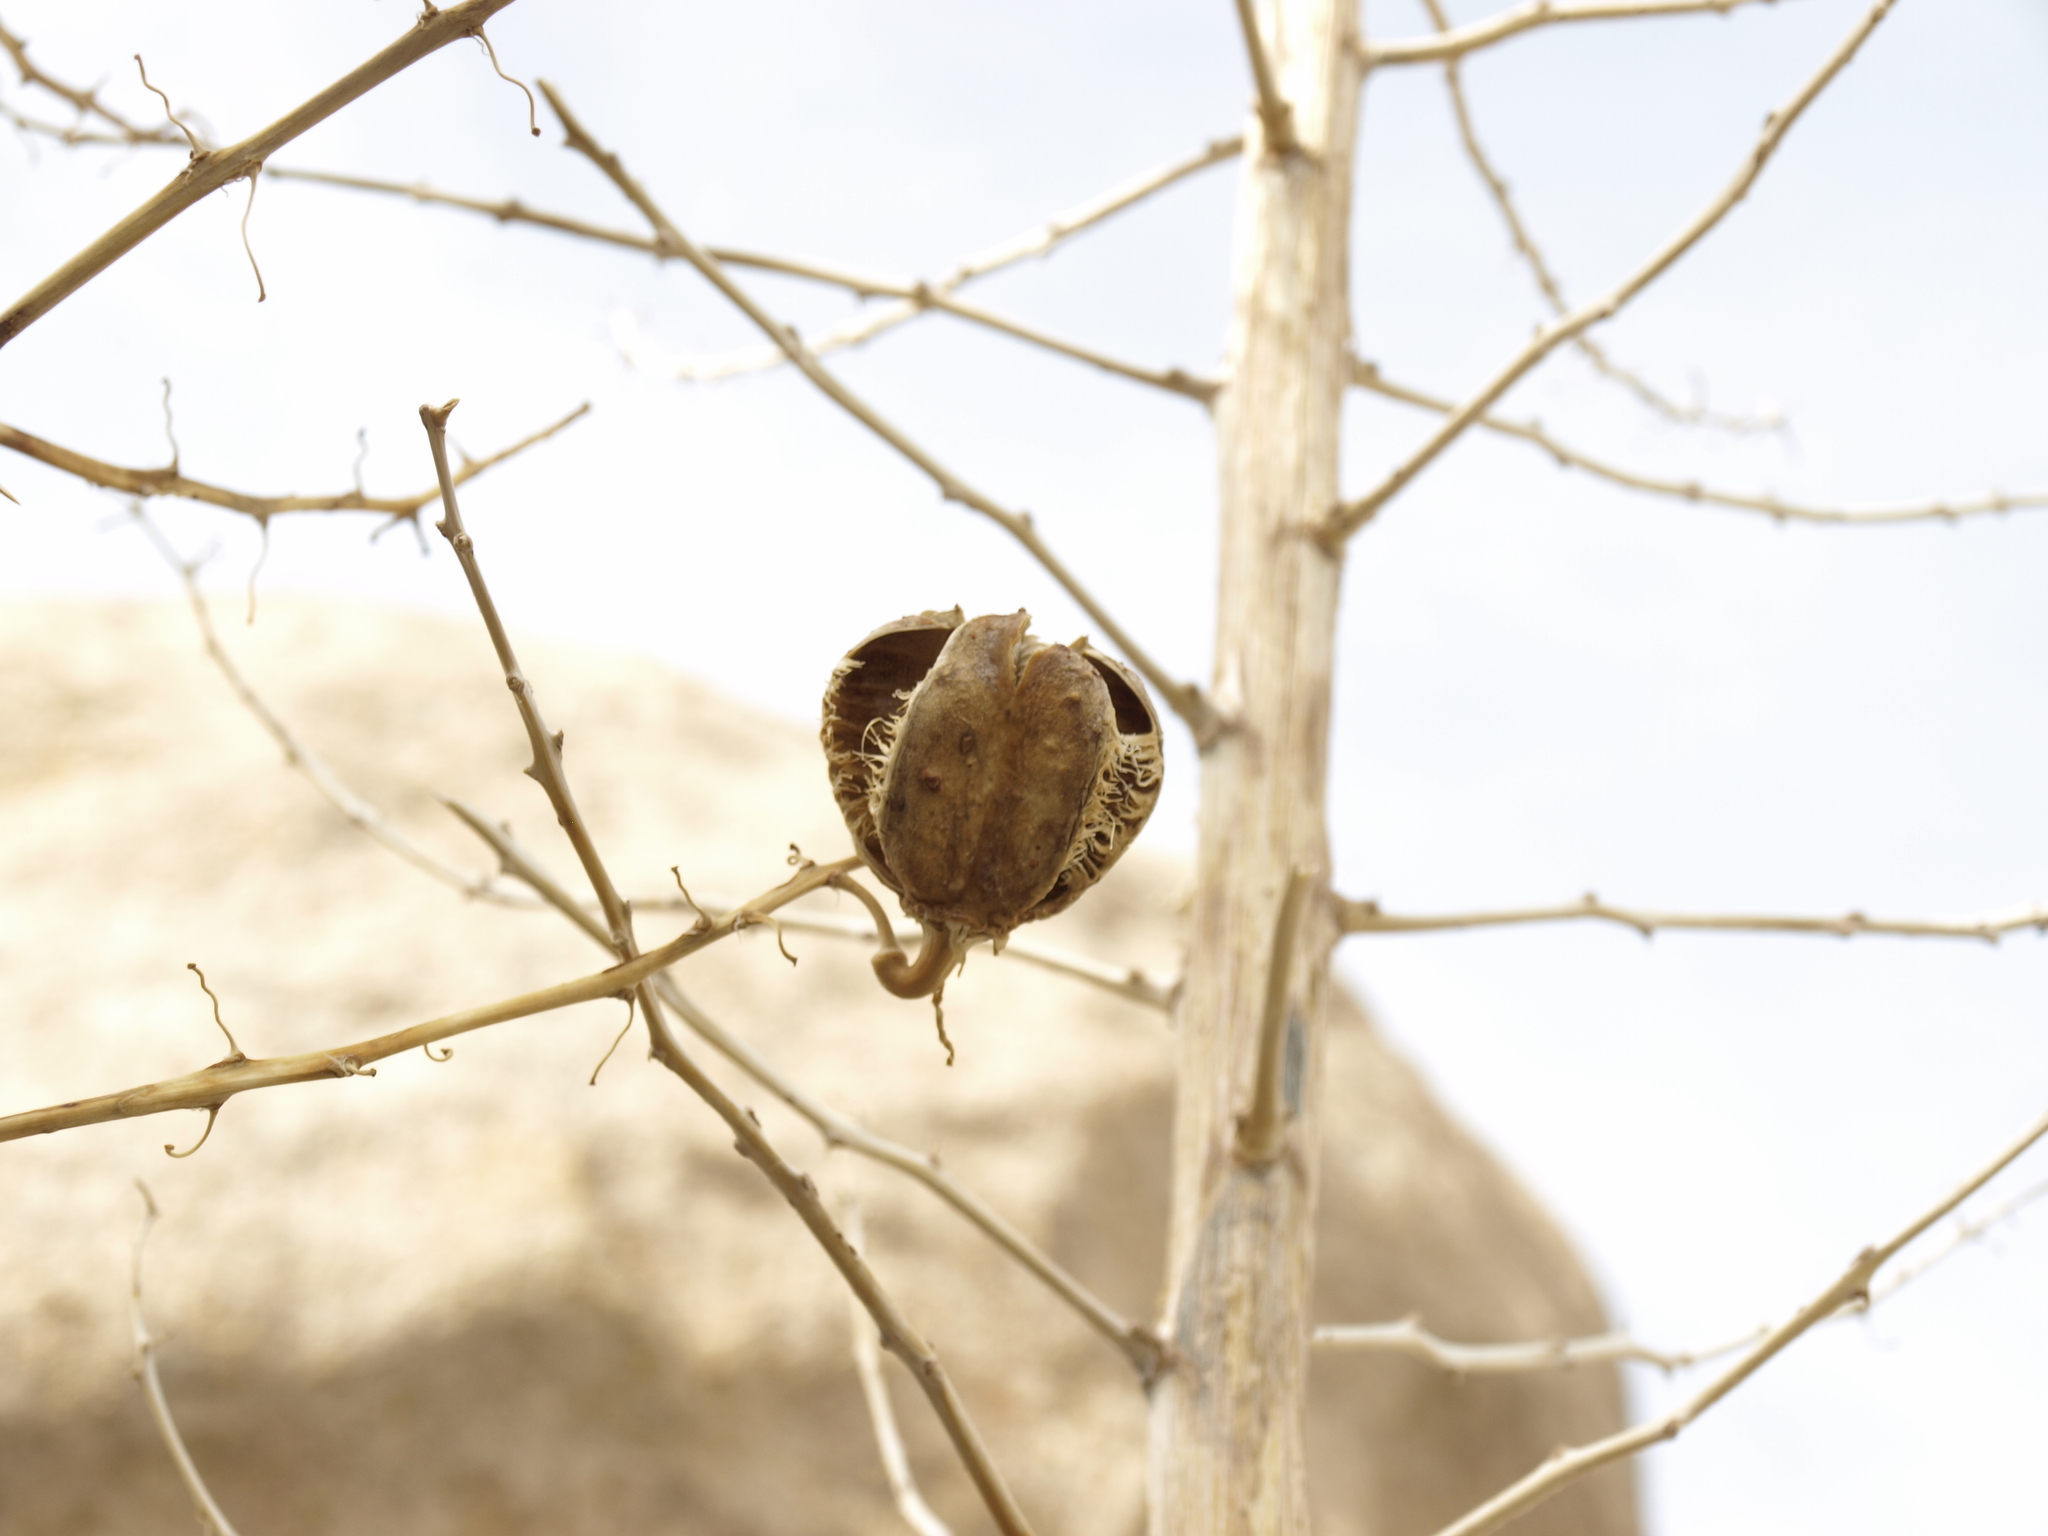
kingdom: Plantae
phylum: Tracheophyta
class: Liliopsida
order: Asparagales
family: Asparagaceae
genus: Hesperoyucca
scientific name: Hesperoyucca whipplei
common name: Our lord's-candle
